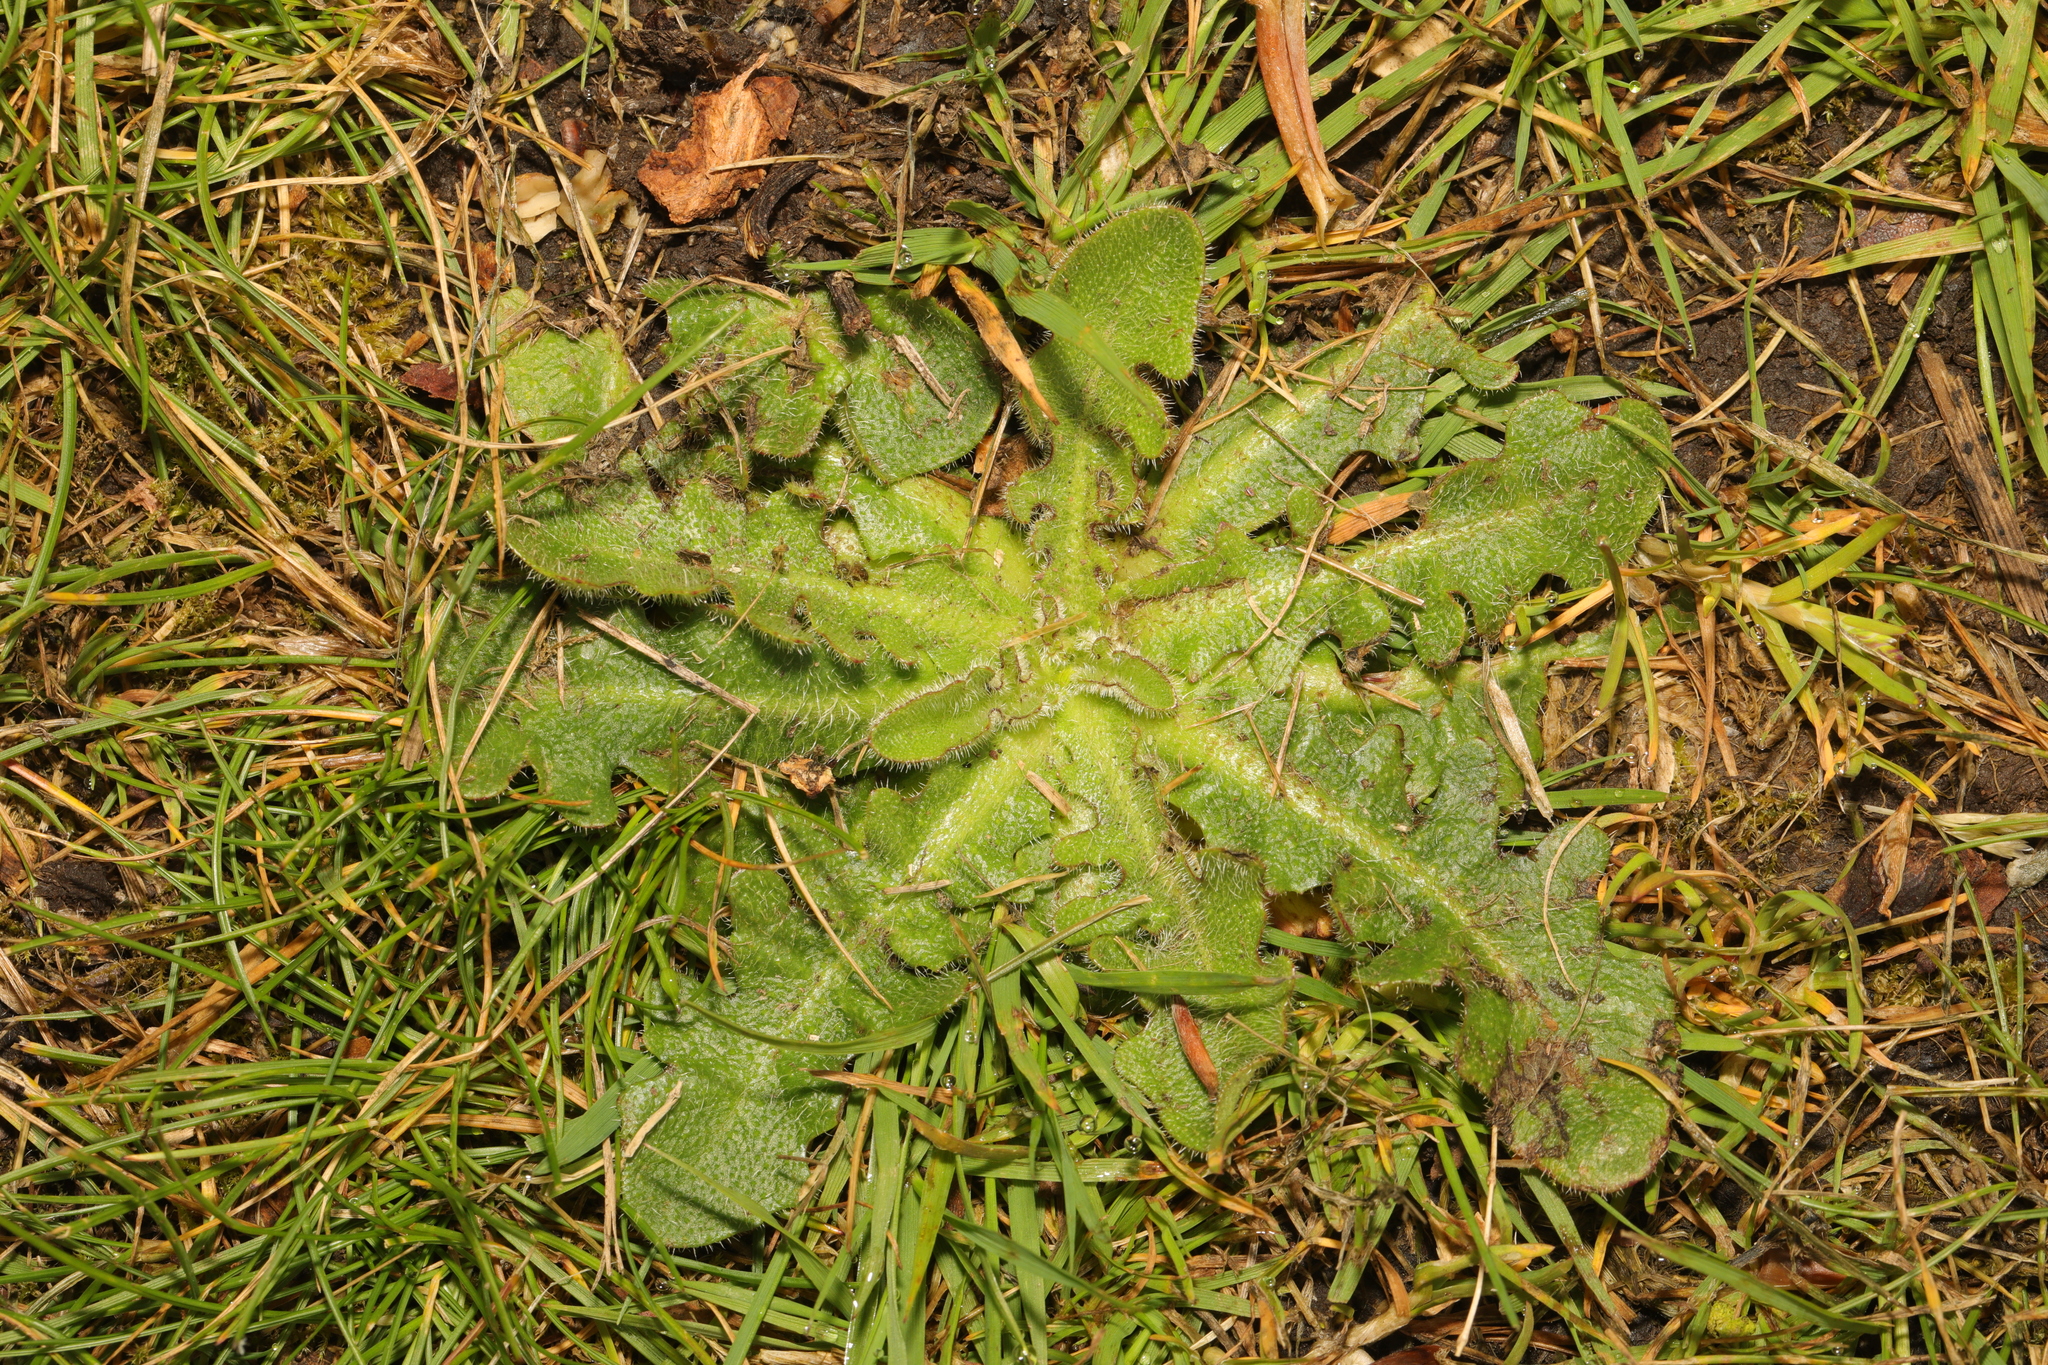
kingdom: Plantae
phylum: Tracheophyta
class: Magnoliopsida
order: Asterales
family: Asteraceae
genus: Hypochaeris
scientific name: Hypochaeris radicata
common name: Flatweed
